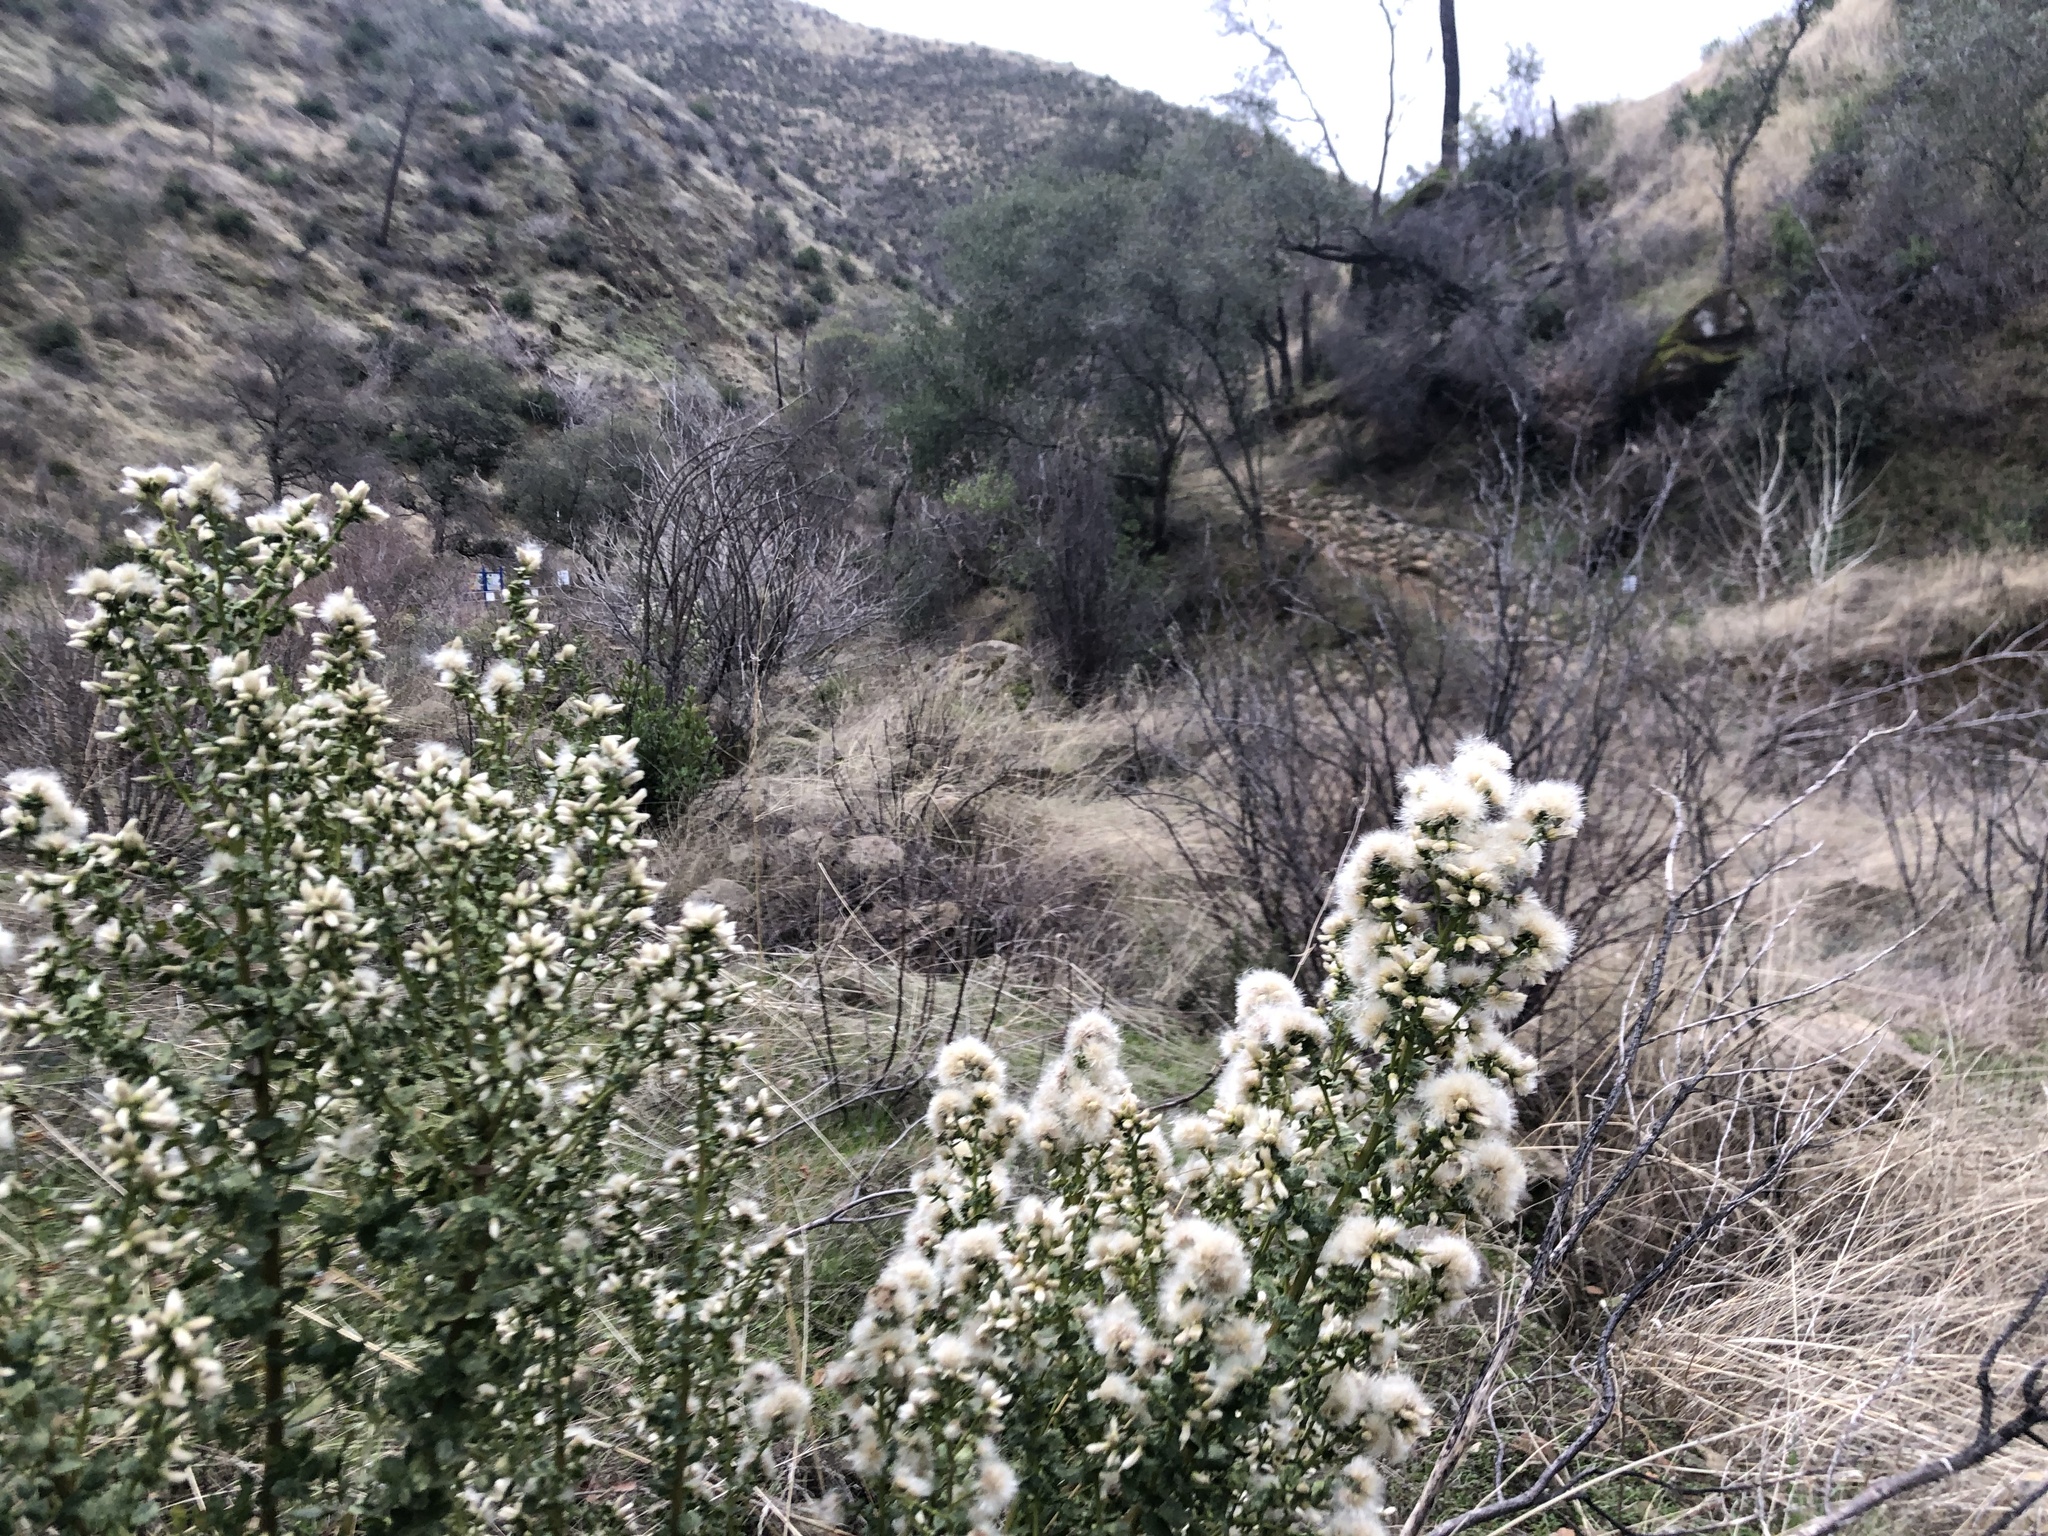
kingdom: Plantae
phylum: Tracheophyta
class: Magnoliopsida
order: Asterales
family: Asteraceae
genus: Baccharis
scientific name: Baccharis pilularis
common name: Coyotebrush
